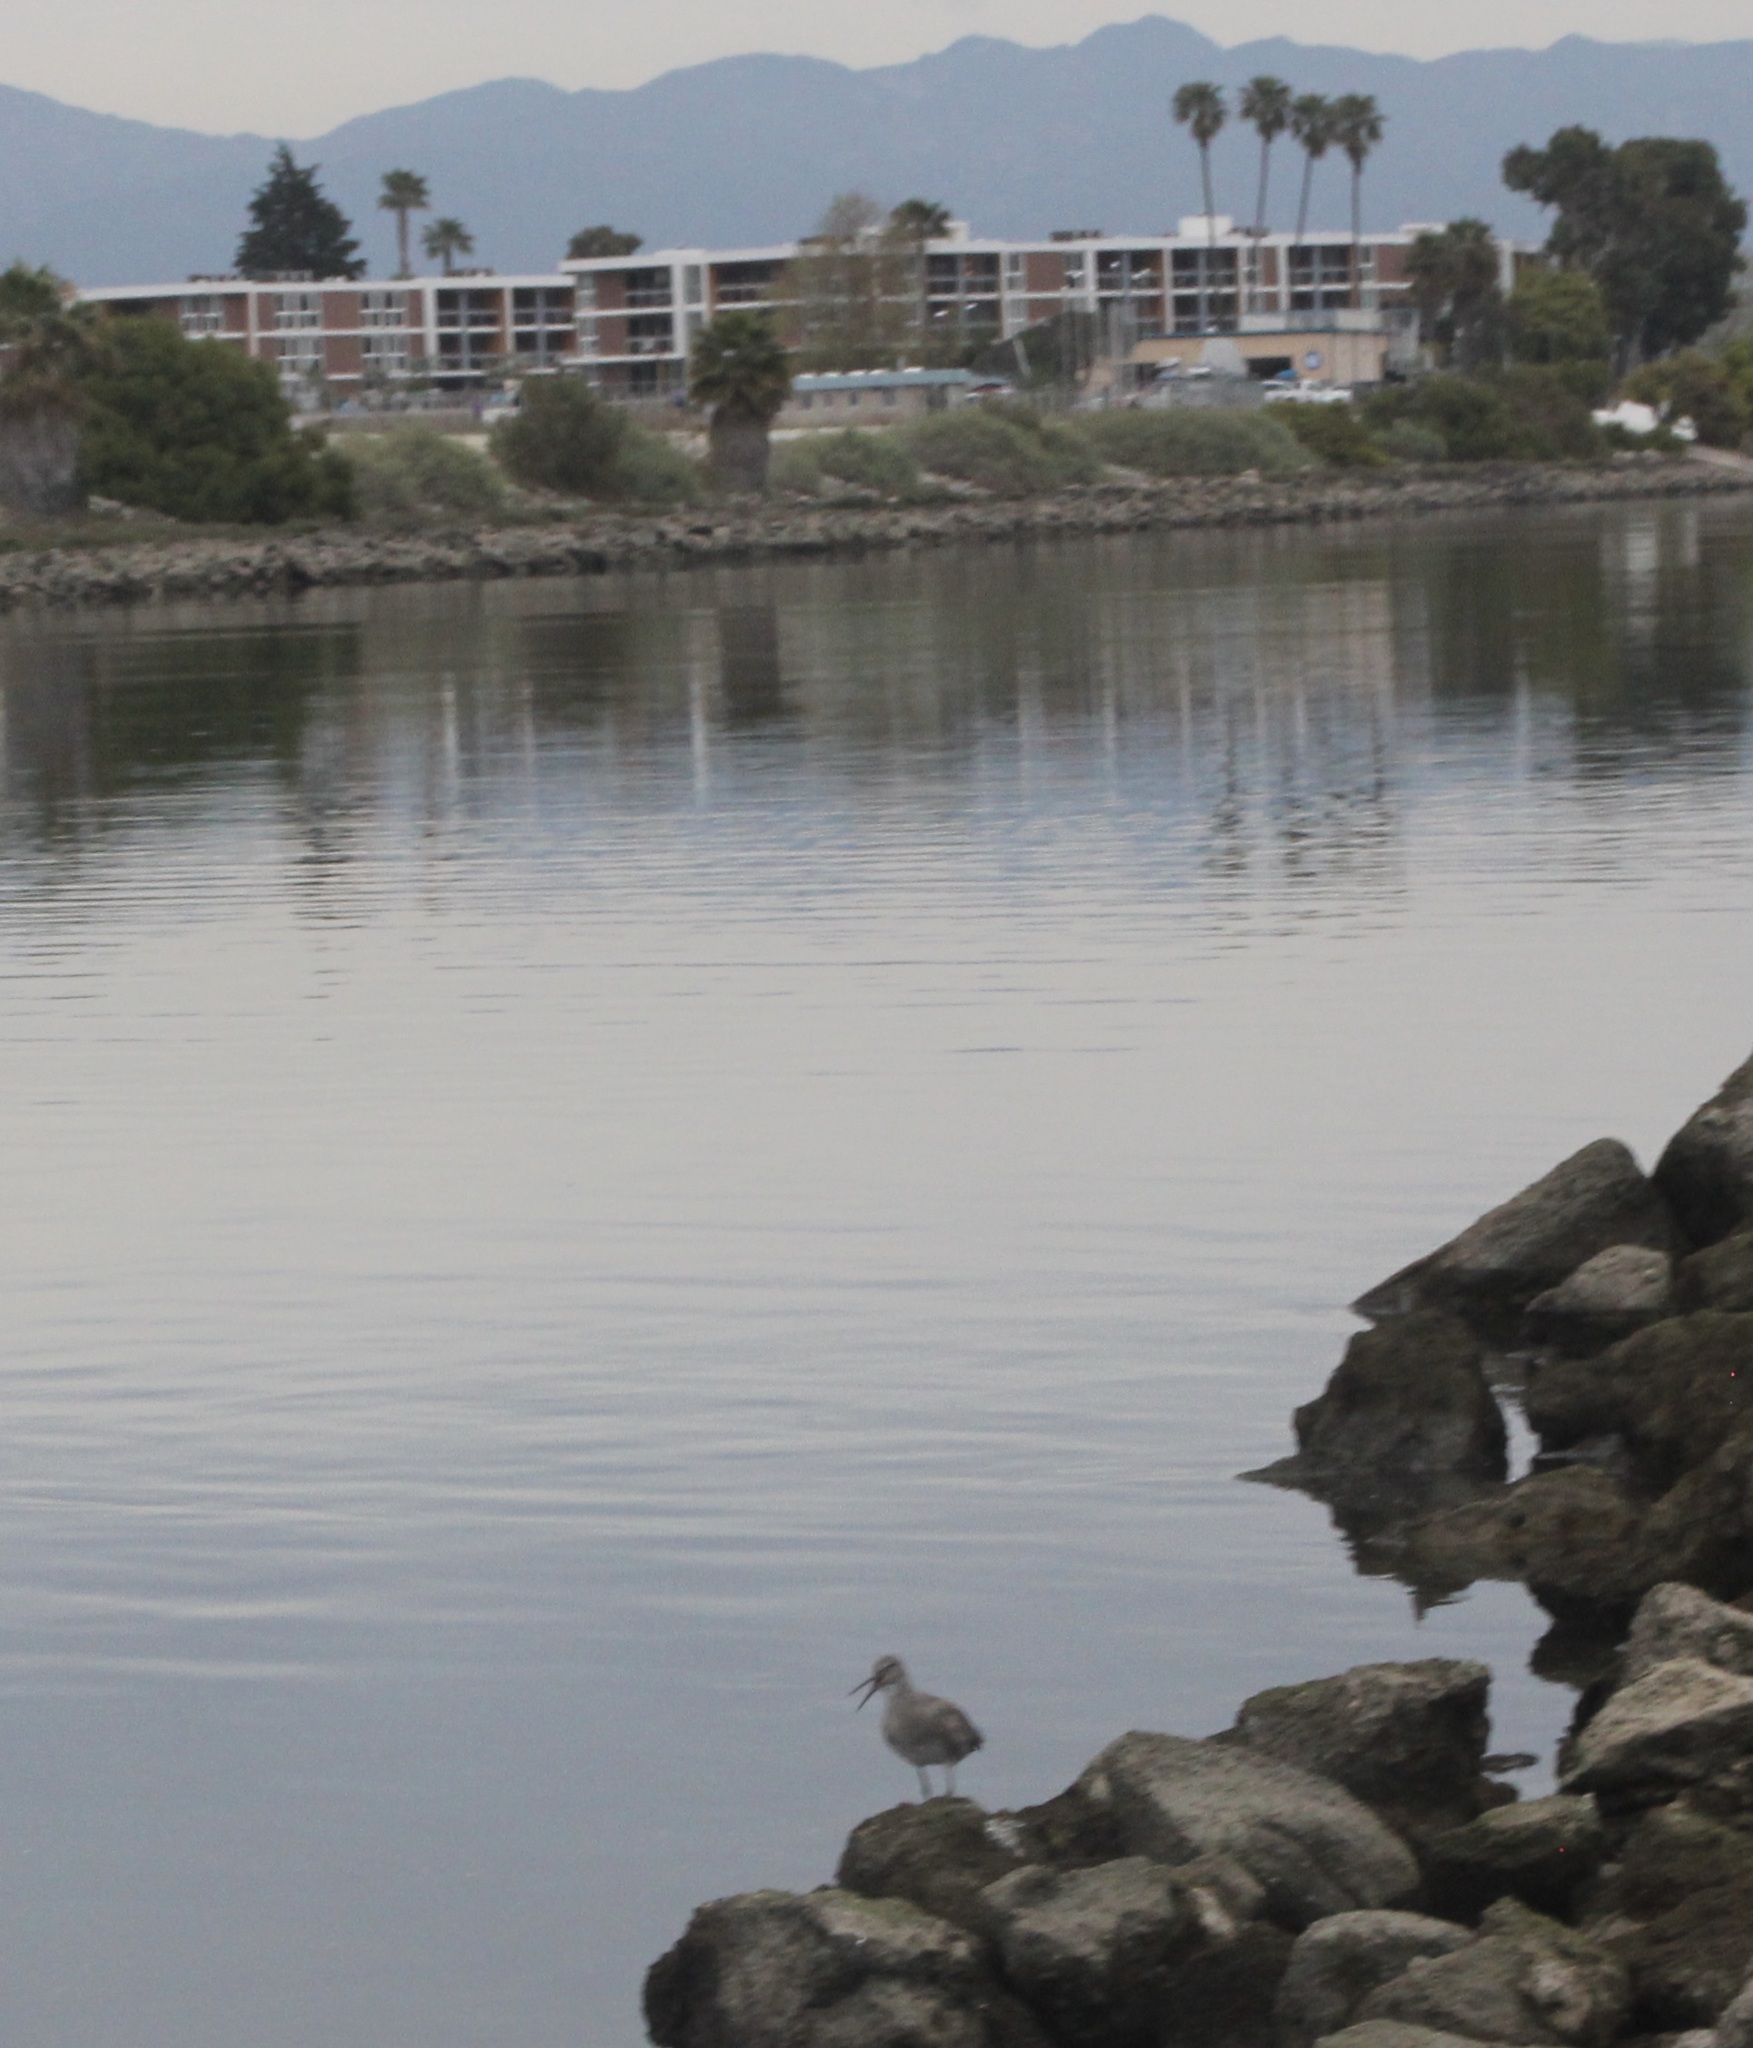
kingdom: Animalia
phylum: Chordata
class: Aves
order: Charadriiformes
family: Scolopacidae
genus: Tringa
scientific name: Tringa semipalmata
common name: Willet
